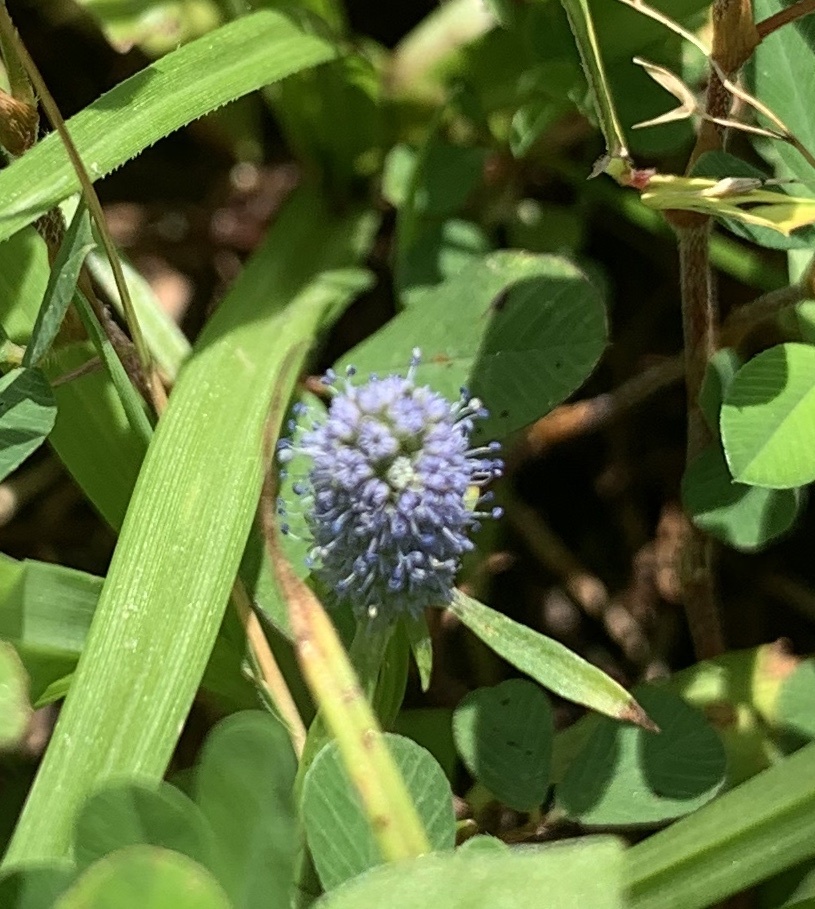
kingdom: Plantae
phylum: Tracheophyta
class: Magnoliopsida
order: Apiales
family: Apiaceae
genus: Eryngium
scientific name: Eryngium prostratum
